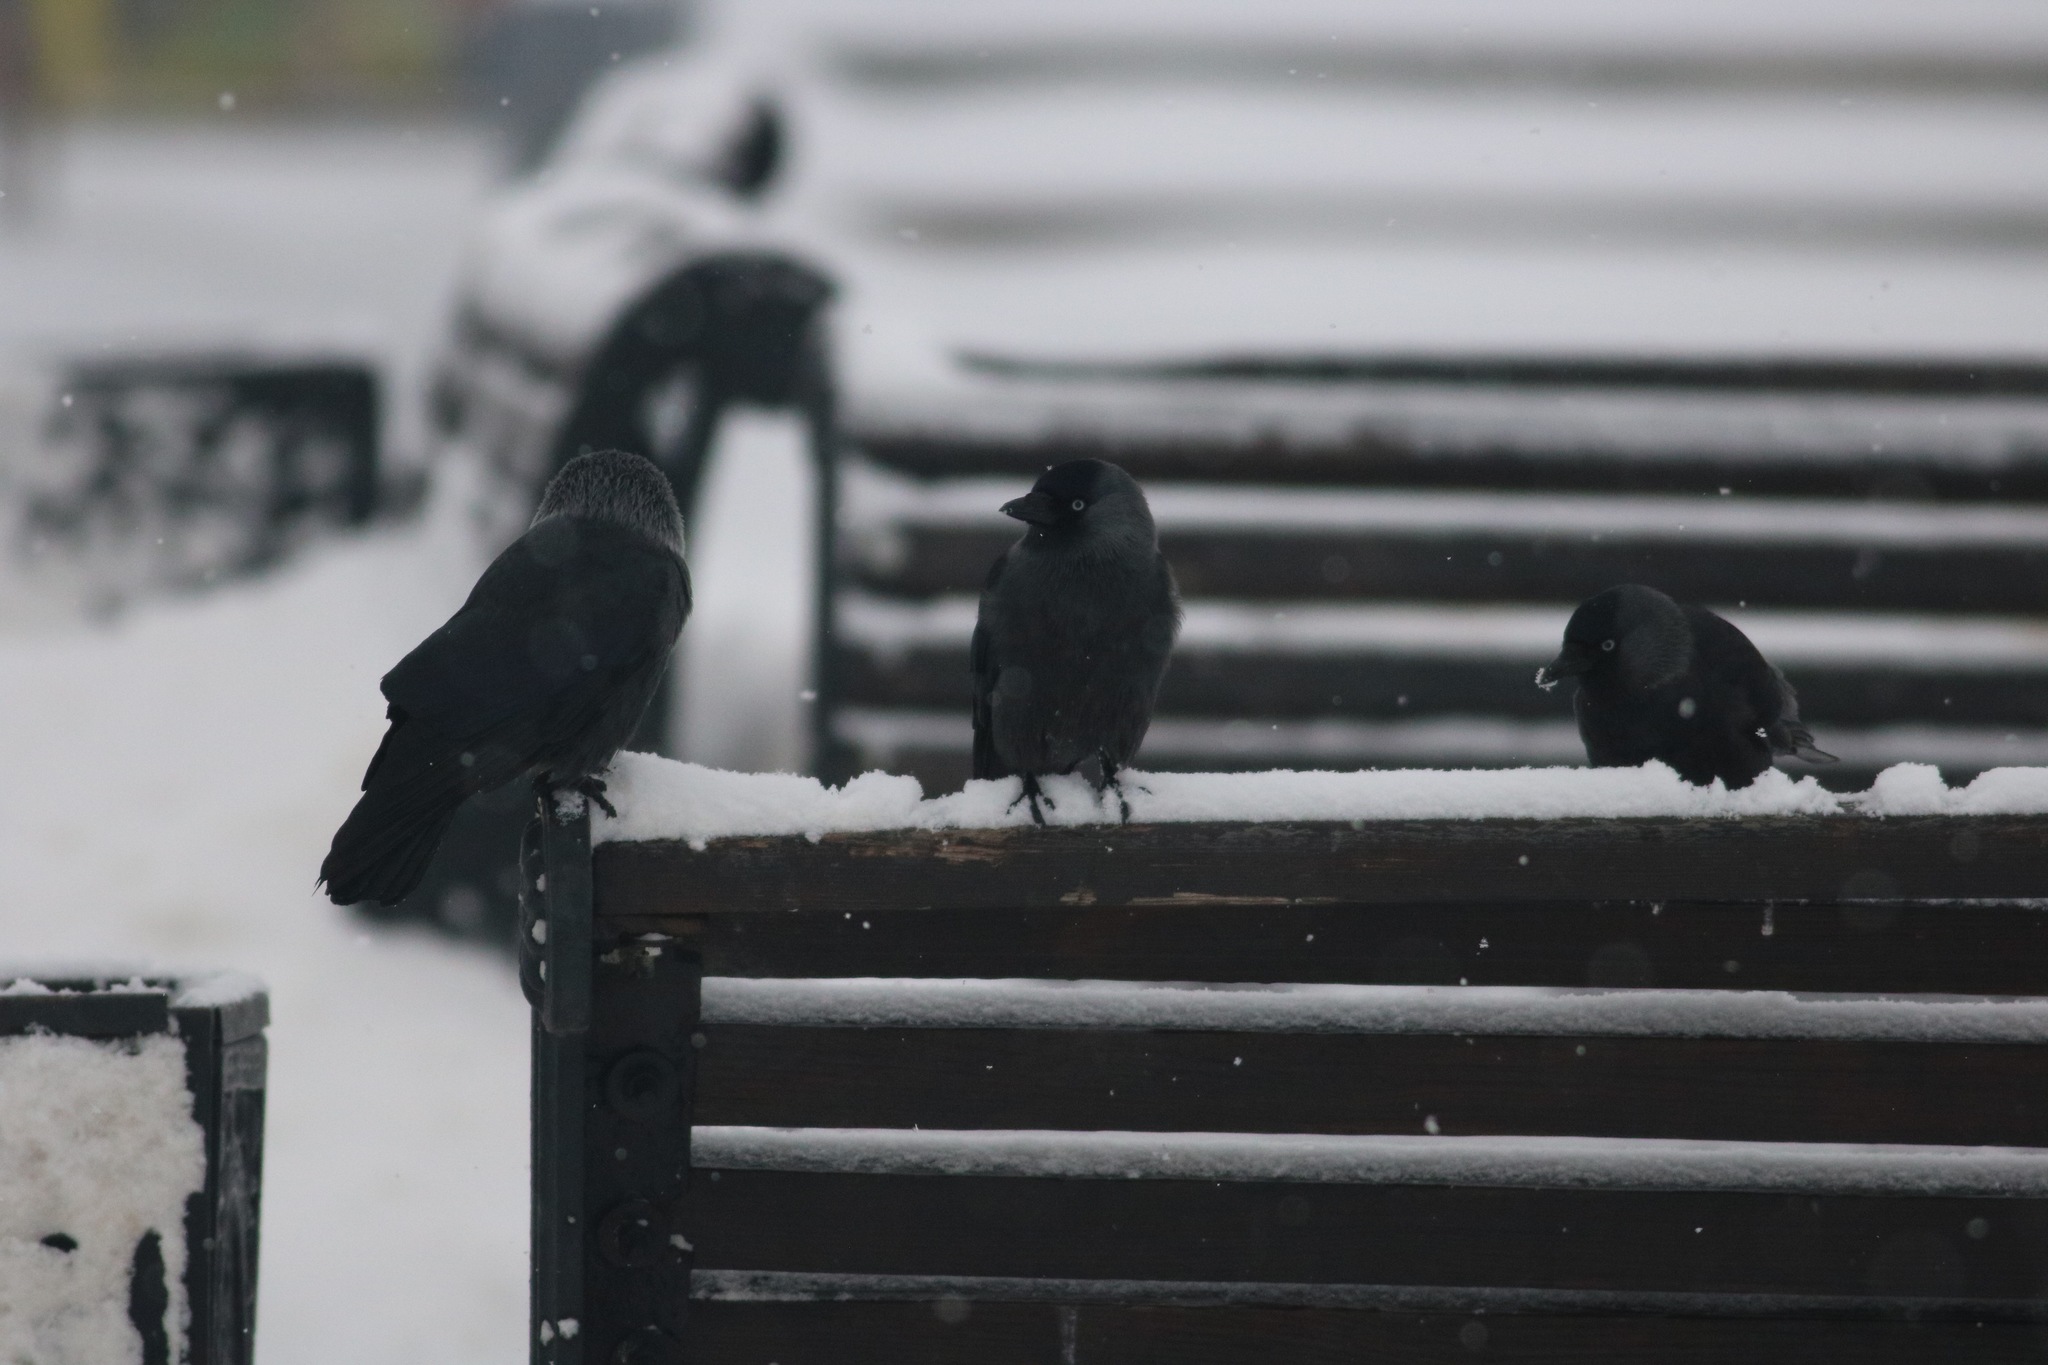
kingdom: Animalia
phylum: Chordata
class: Aves
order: Passeriformes
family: Corvidae
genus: Coloeus
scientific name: Coloeus monedula
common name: Western jackdaw
